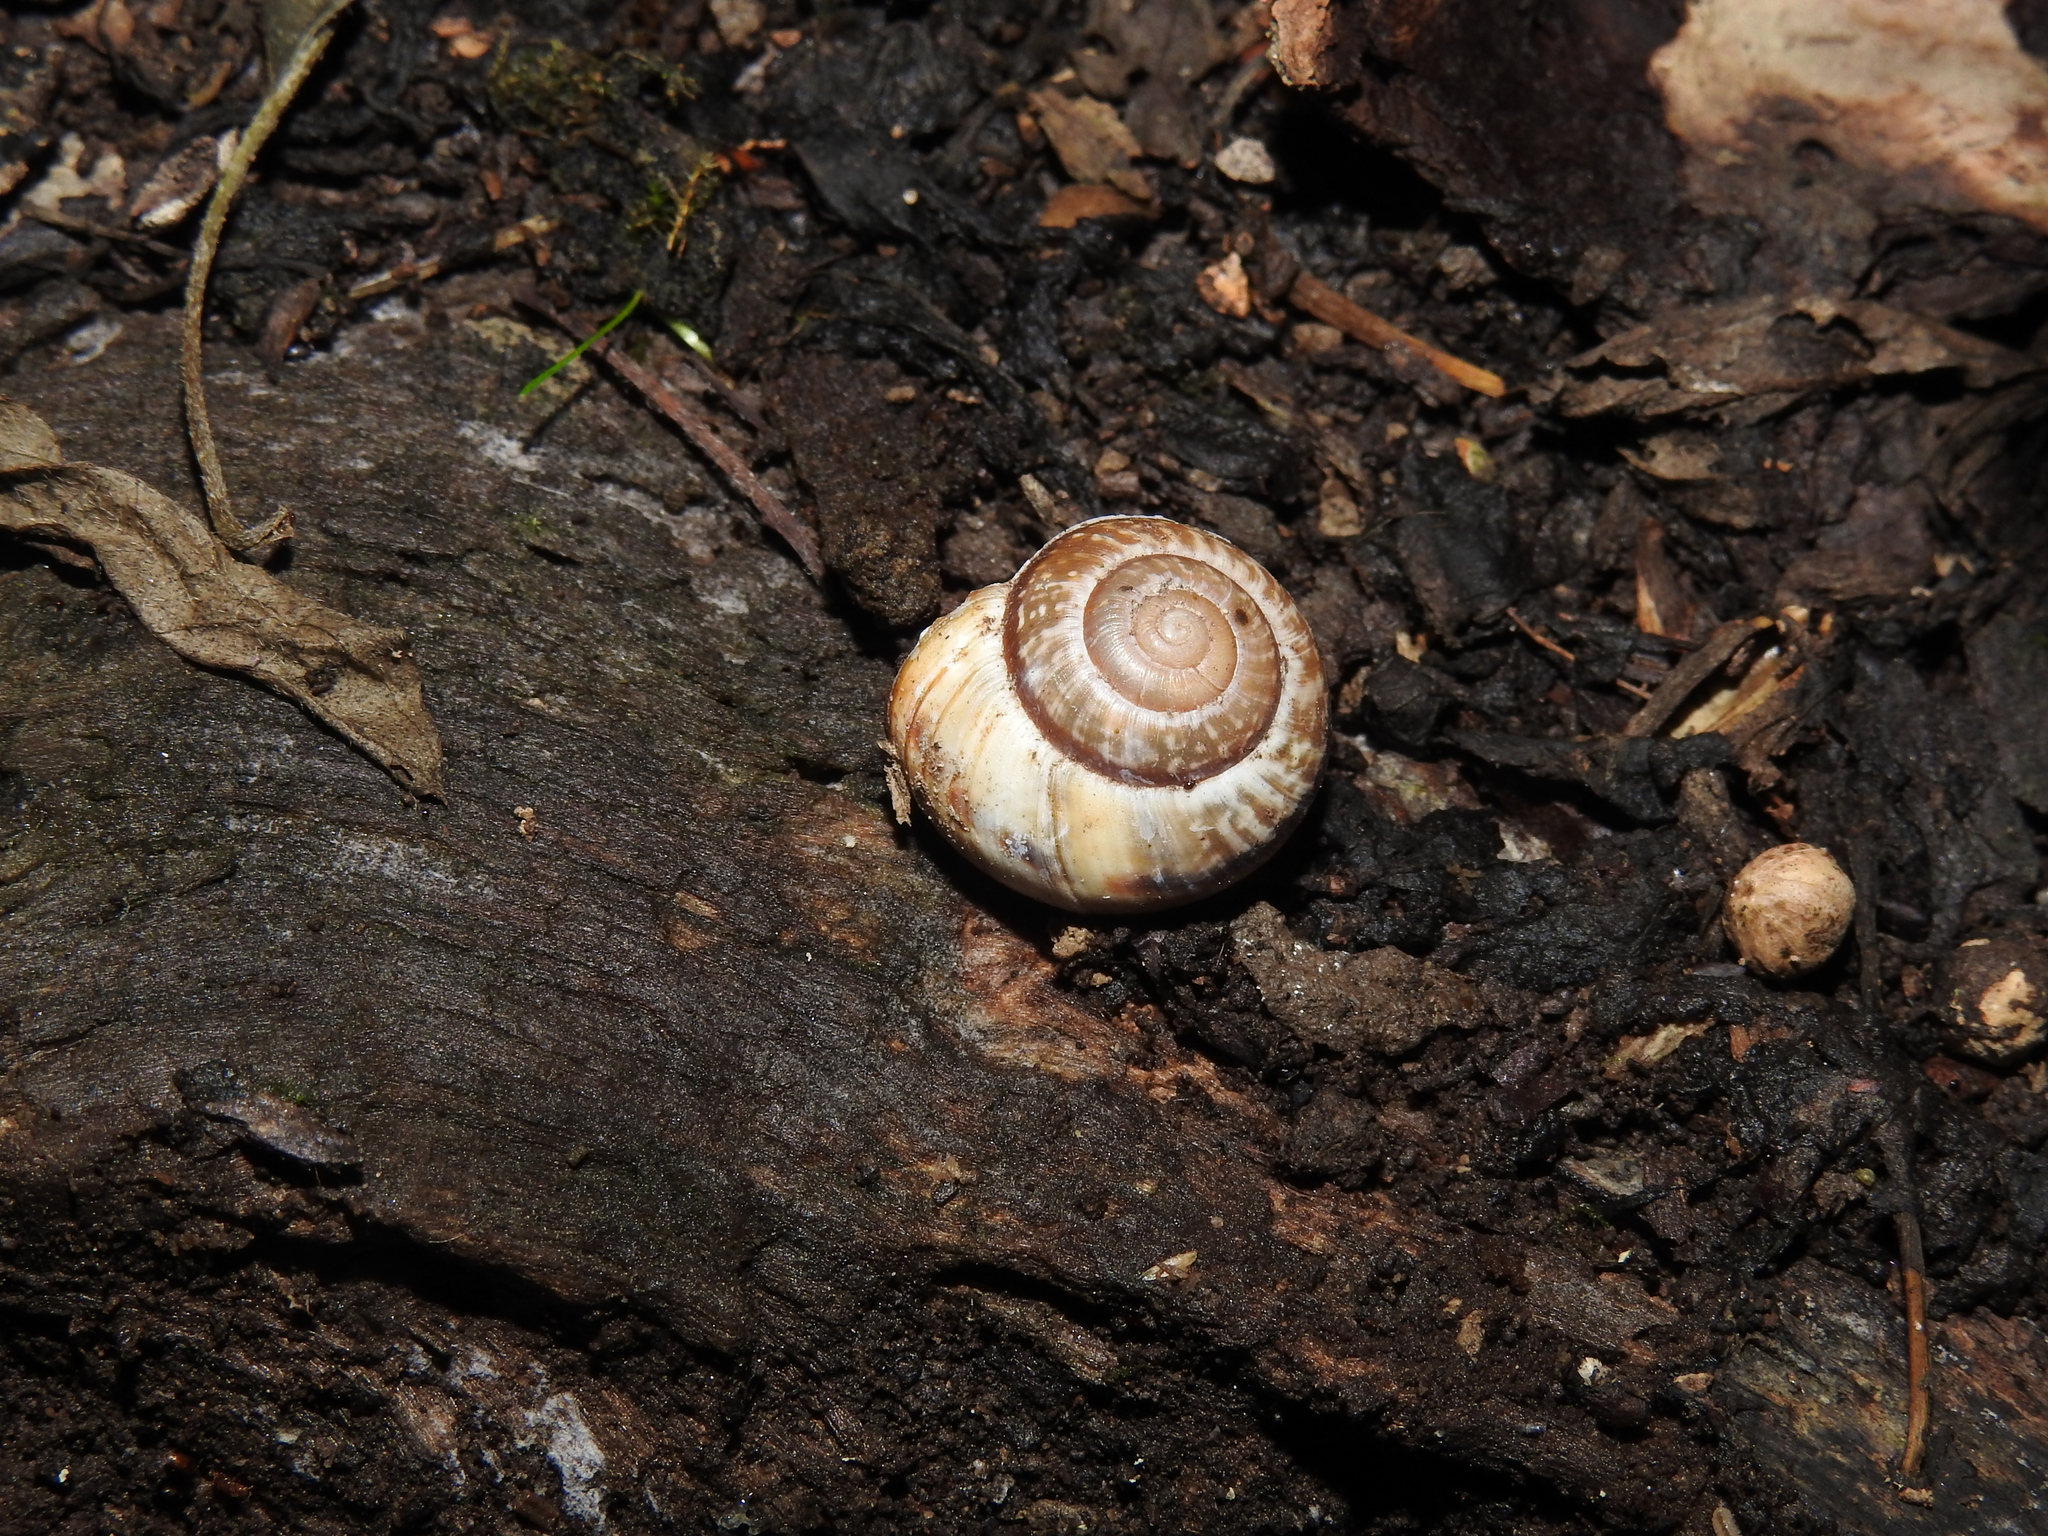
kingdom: Animalia
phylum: Mollusca
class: Gastropoda
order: Stylommatophora
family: Helicidae
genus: Arianta
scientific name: Arianta arbustorum
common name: Copse snail
